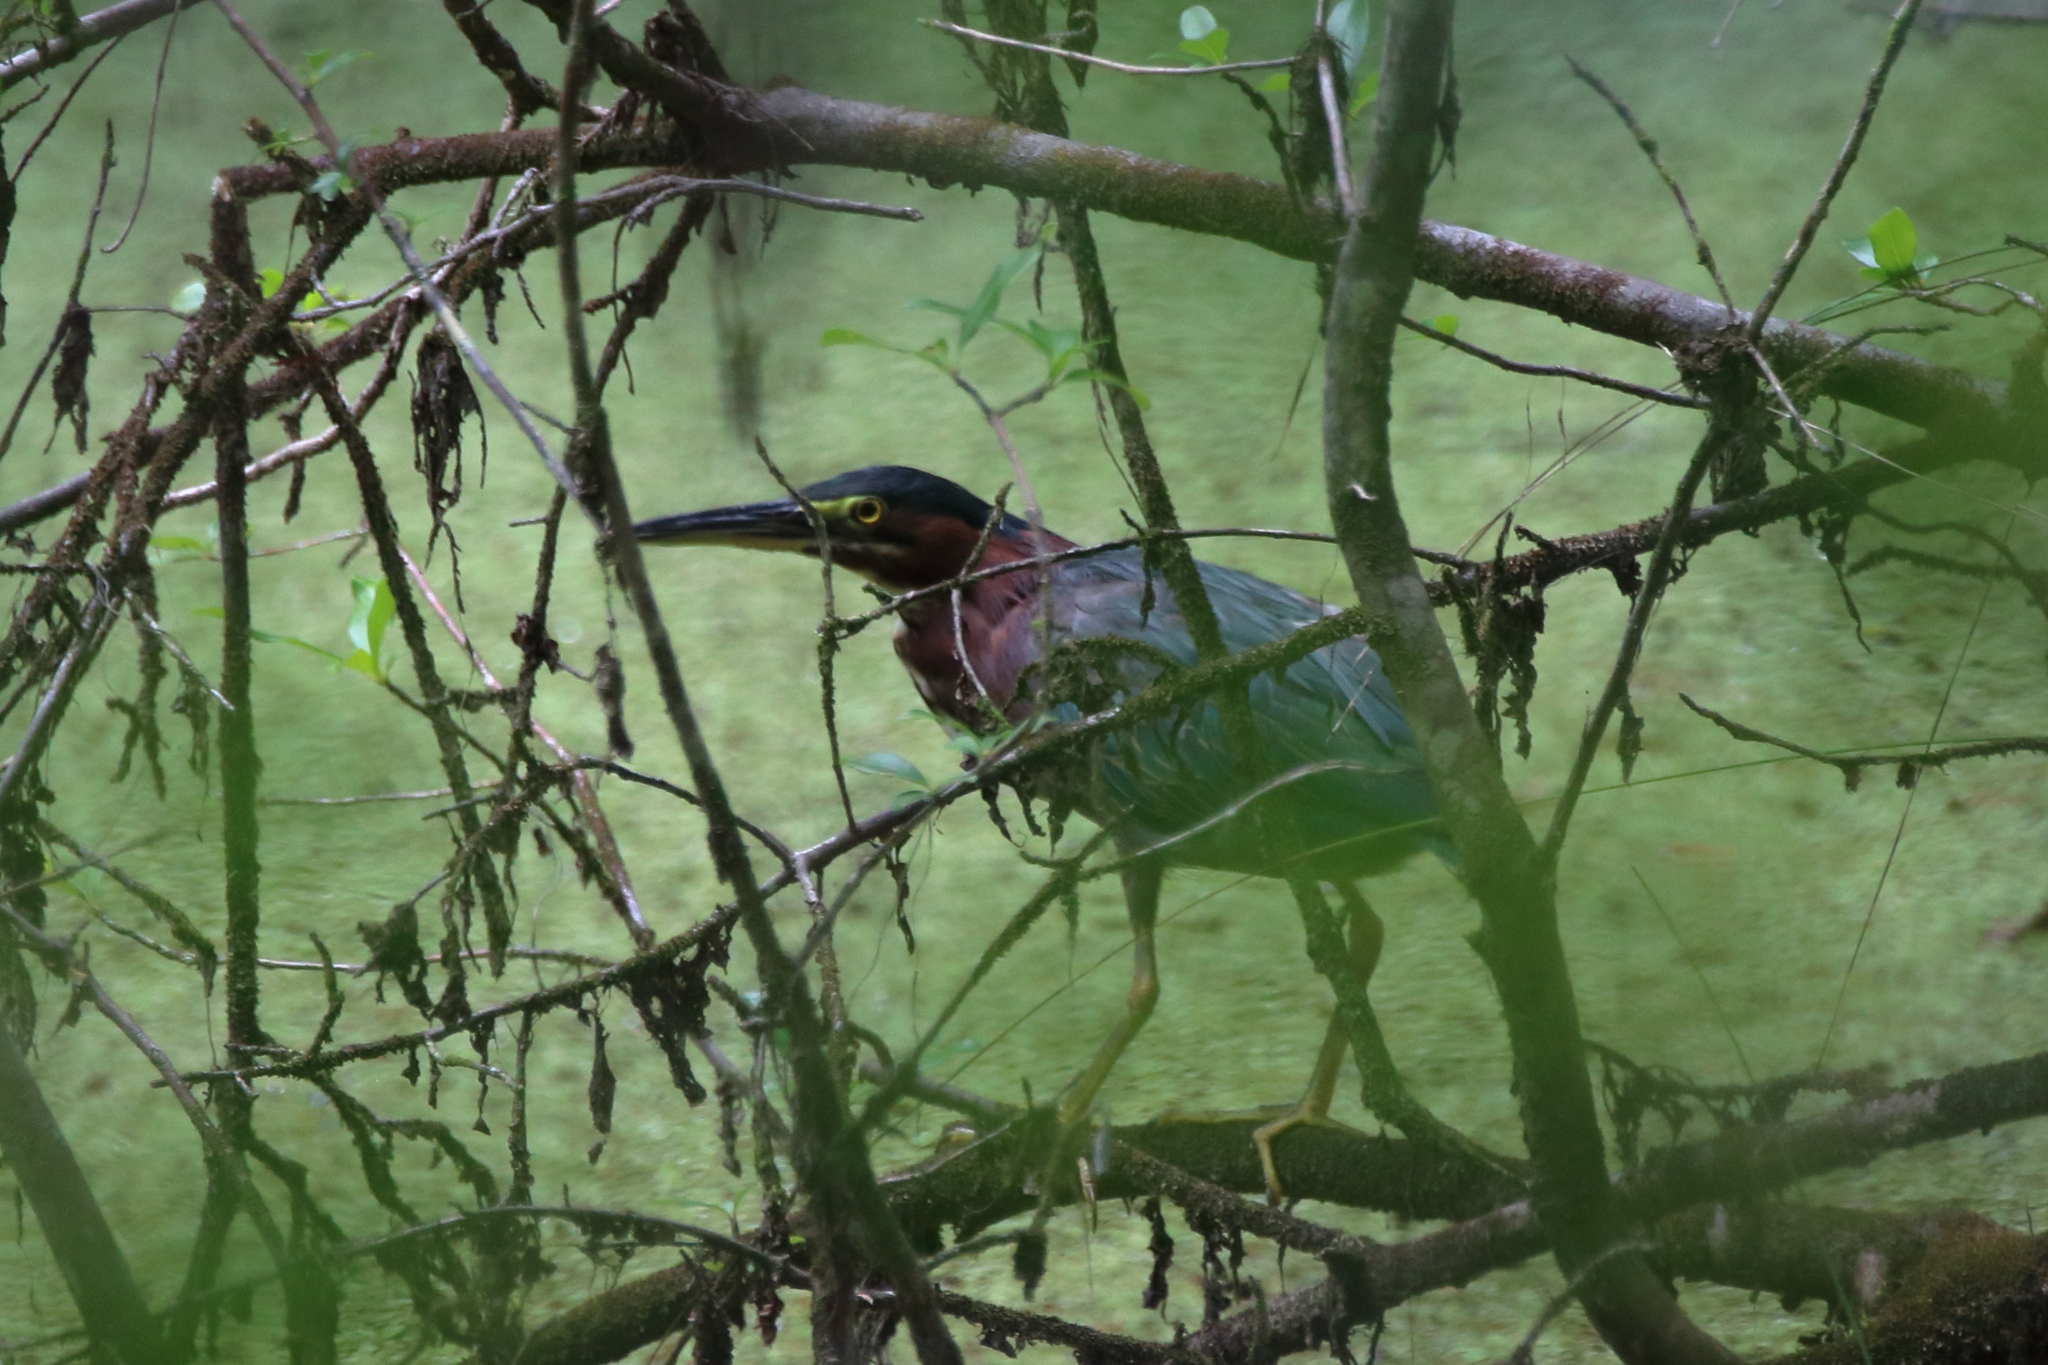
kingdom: Animalia
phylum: Chordata
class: Aves
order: Pelecaniformes
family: Ardeidae
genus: Butorides
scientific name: Butorides virescens
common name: Green heron
